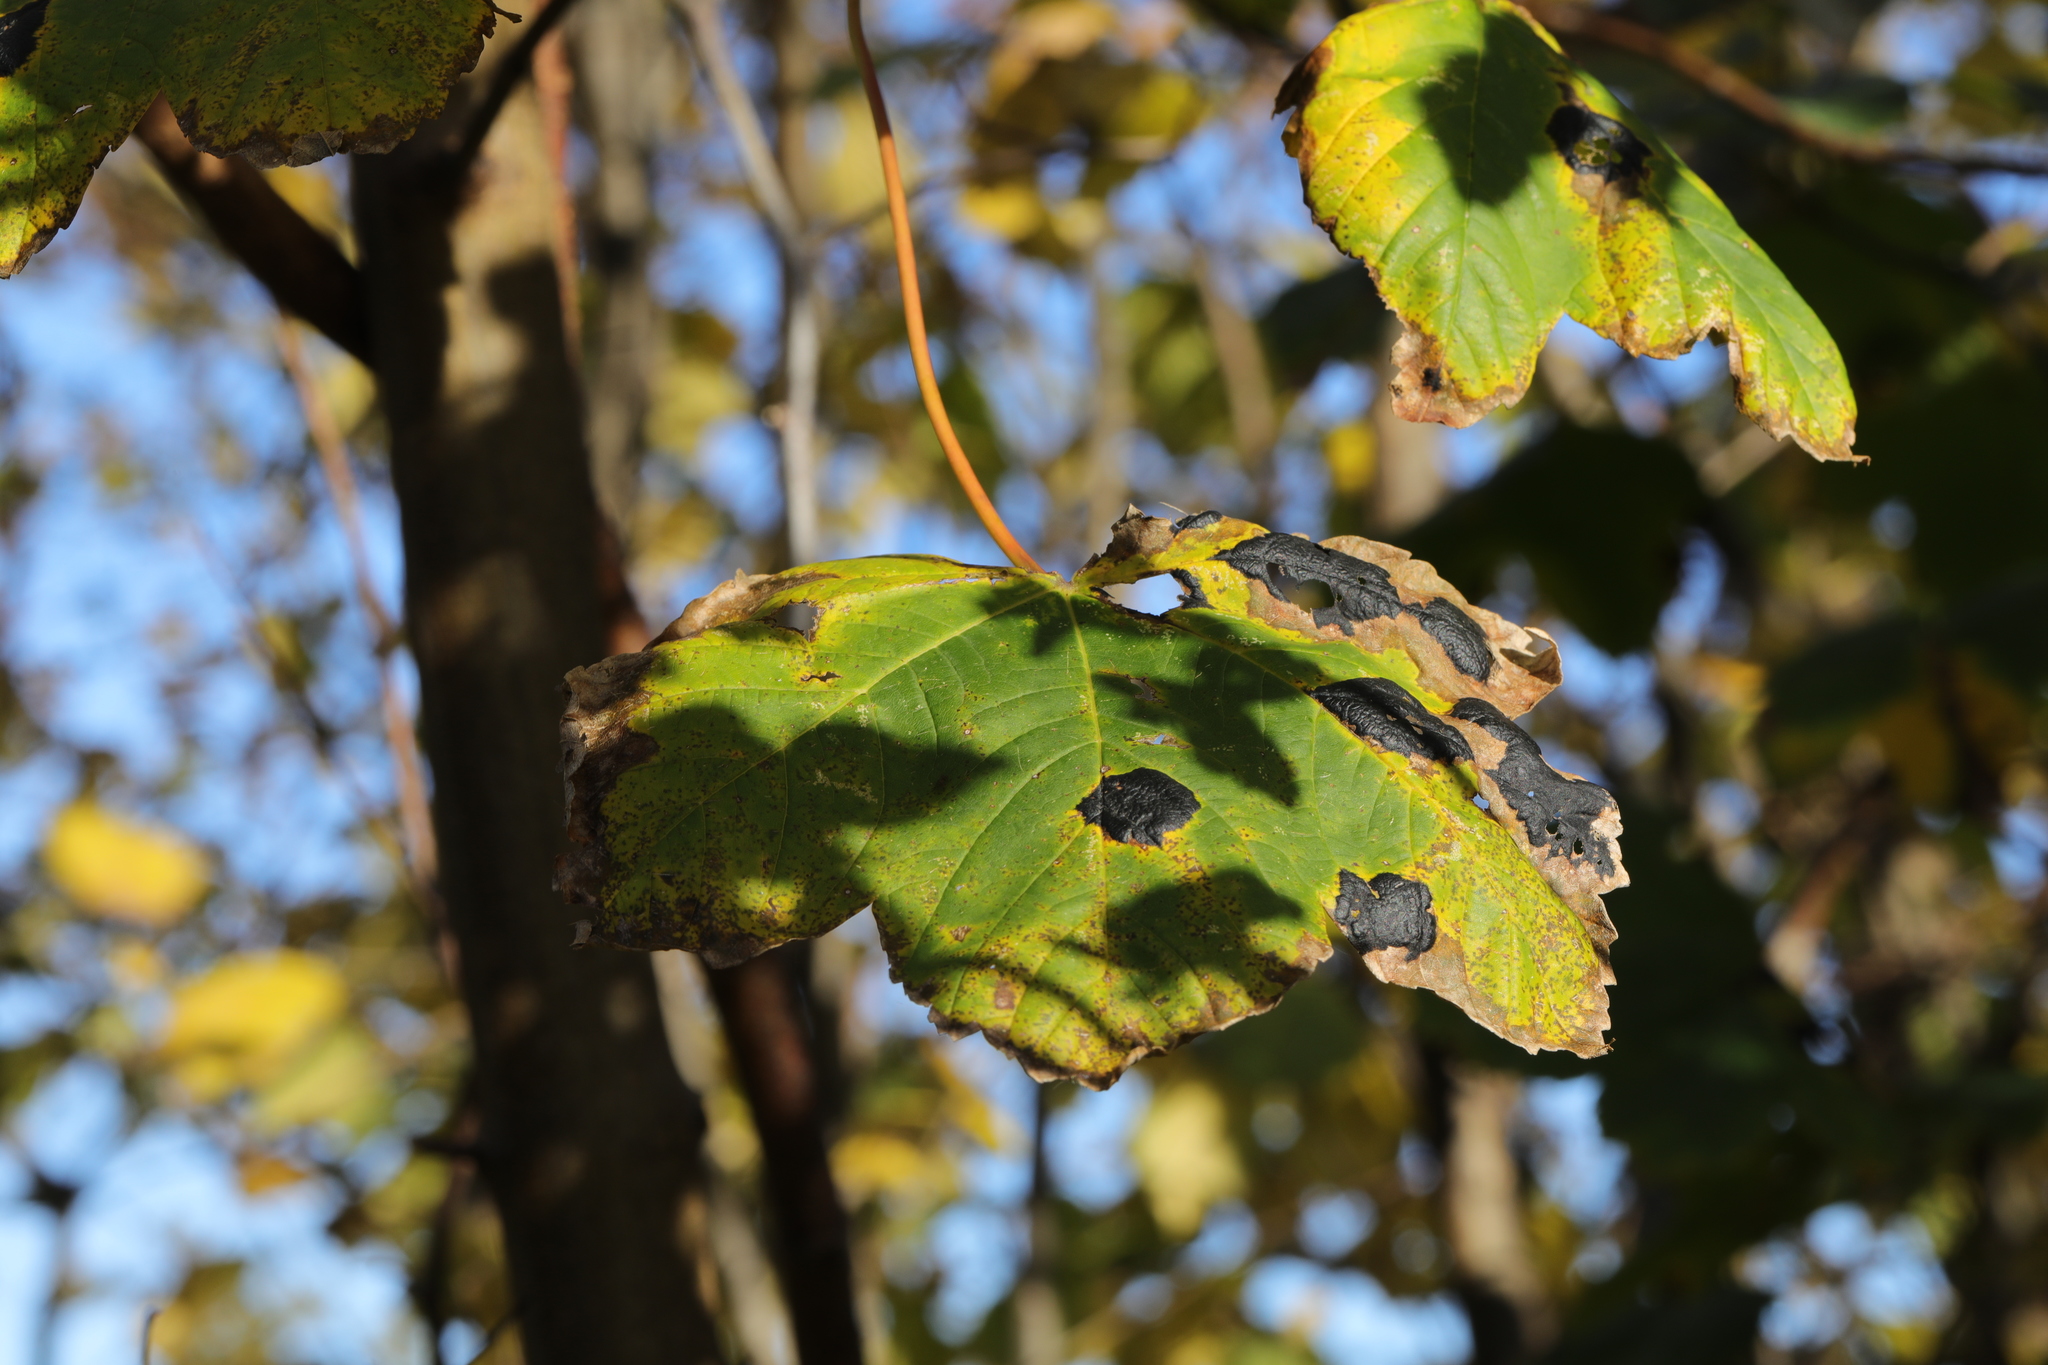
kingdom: Plantae
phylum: Tracheophyta
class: Magnoliopsida
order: Sapindales
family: Sapindaceae
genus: Acer
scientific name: Acer pseudoplatanus
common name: Sycamore
